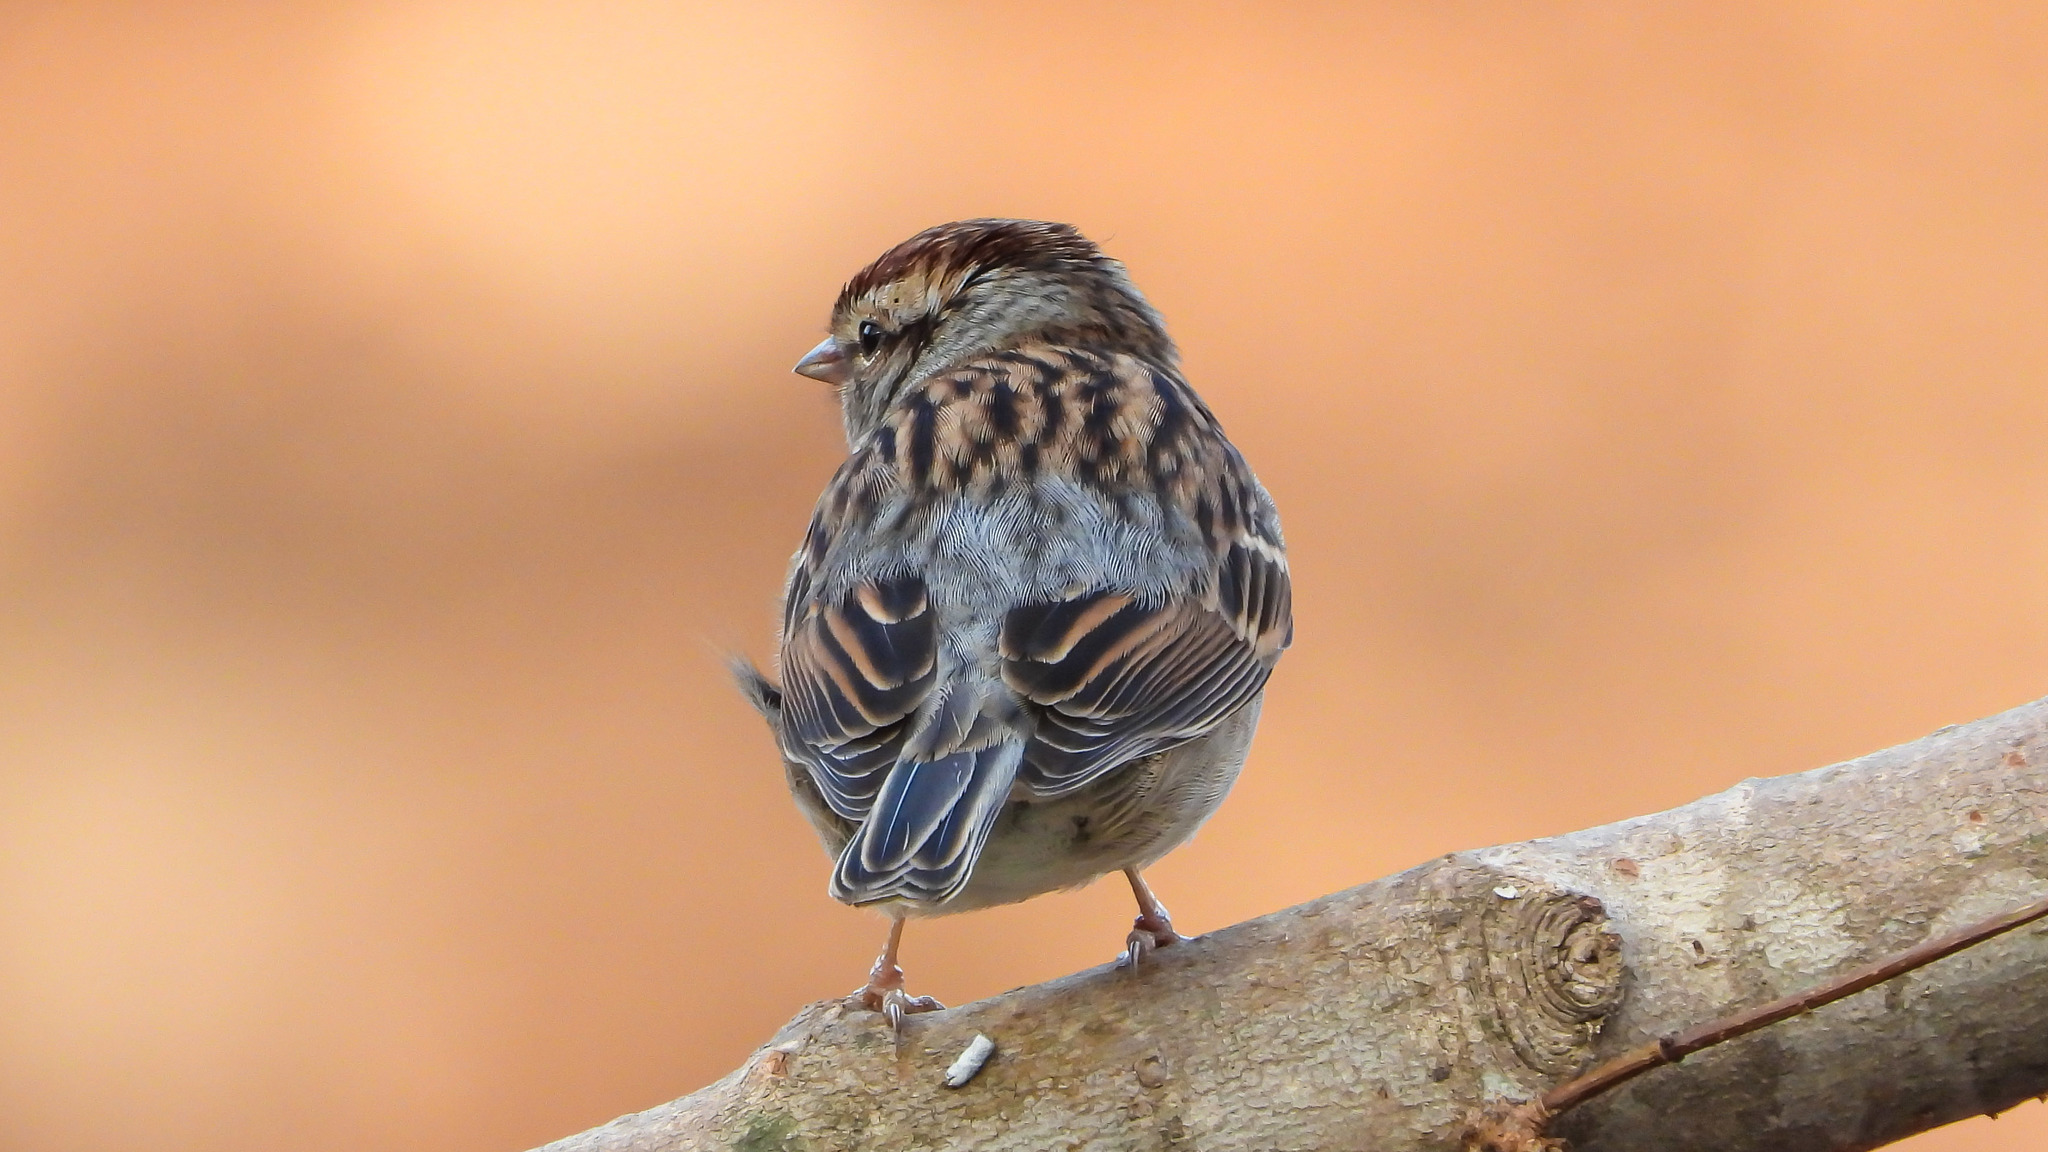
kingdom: Animalia
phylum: Chordata
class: Aves
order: Passeriformes
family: Passerellidae
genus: Spizella
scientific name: Spizella passerina
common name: Chipping sparrow
